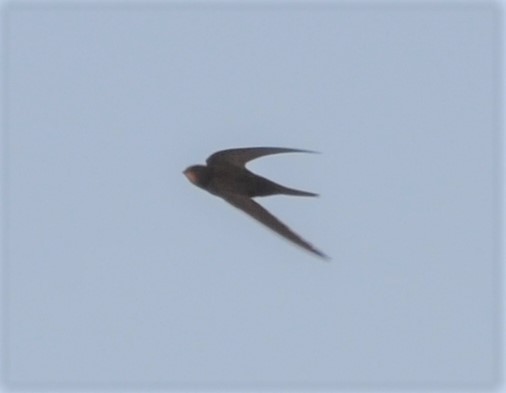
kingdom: Animalia
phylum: Chordata
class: Aves
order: Apodiformes
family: Apodidae
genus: Apus
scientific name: Apus apus
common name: Common swift
